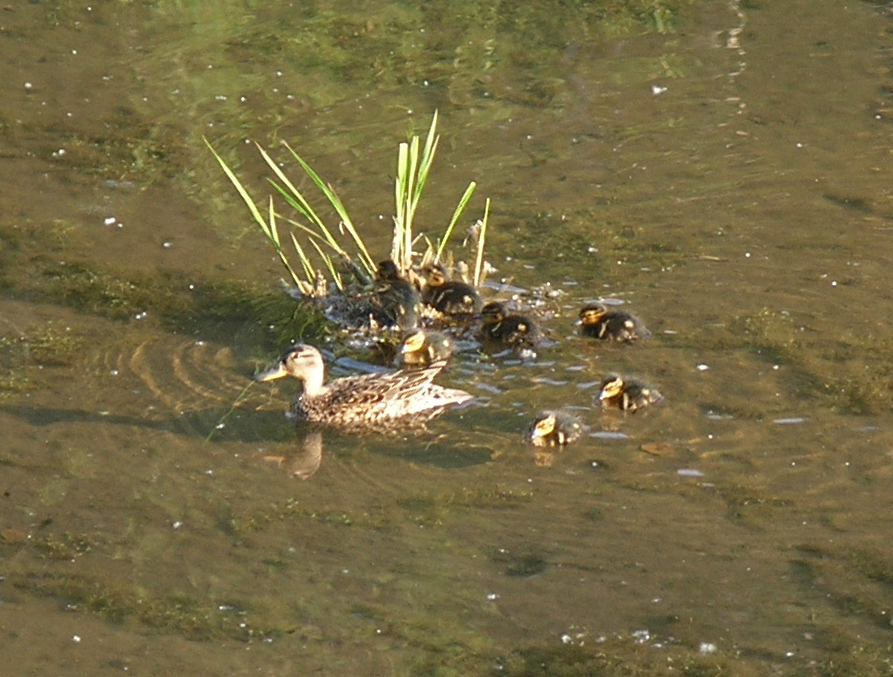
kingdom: Animalia
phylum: Chordata
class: Aves
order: Anseriformes
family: Anatidae
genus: Anas
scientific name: Anas crecca
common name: Eurasian teal
